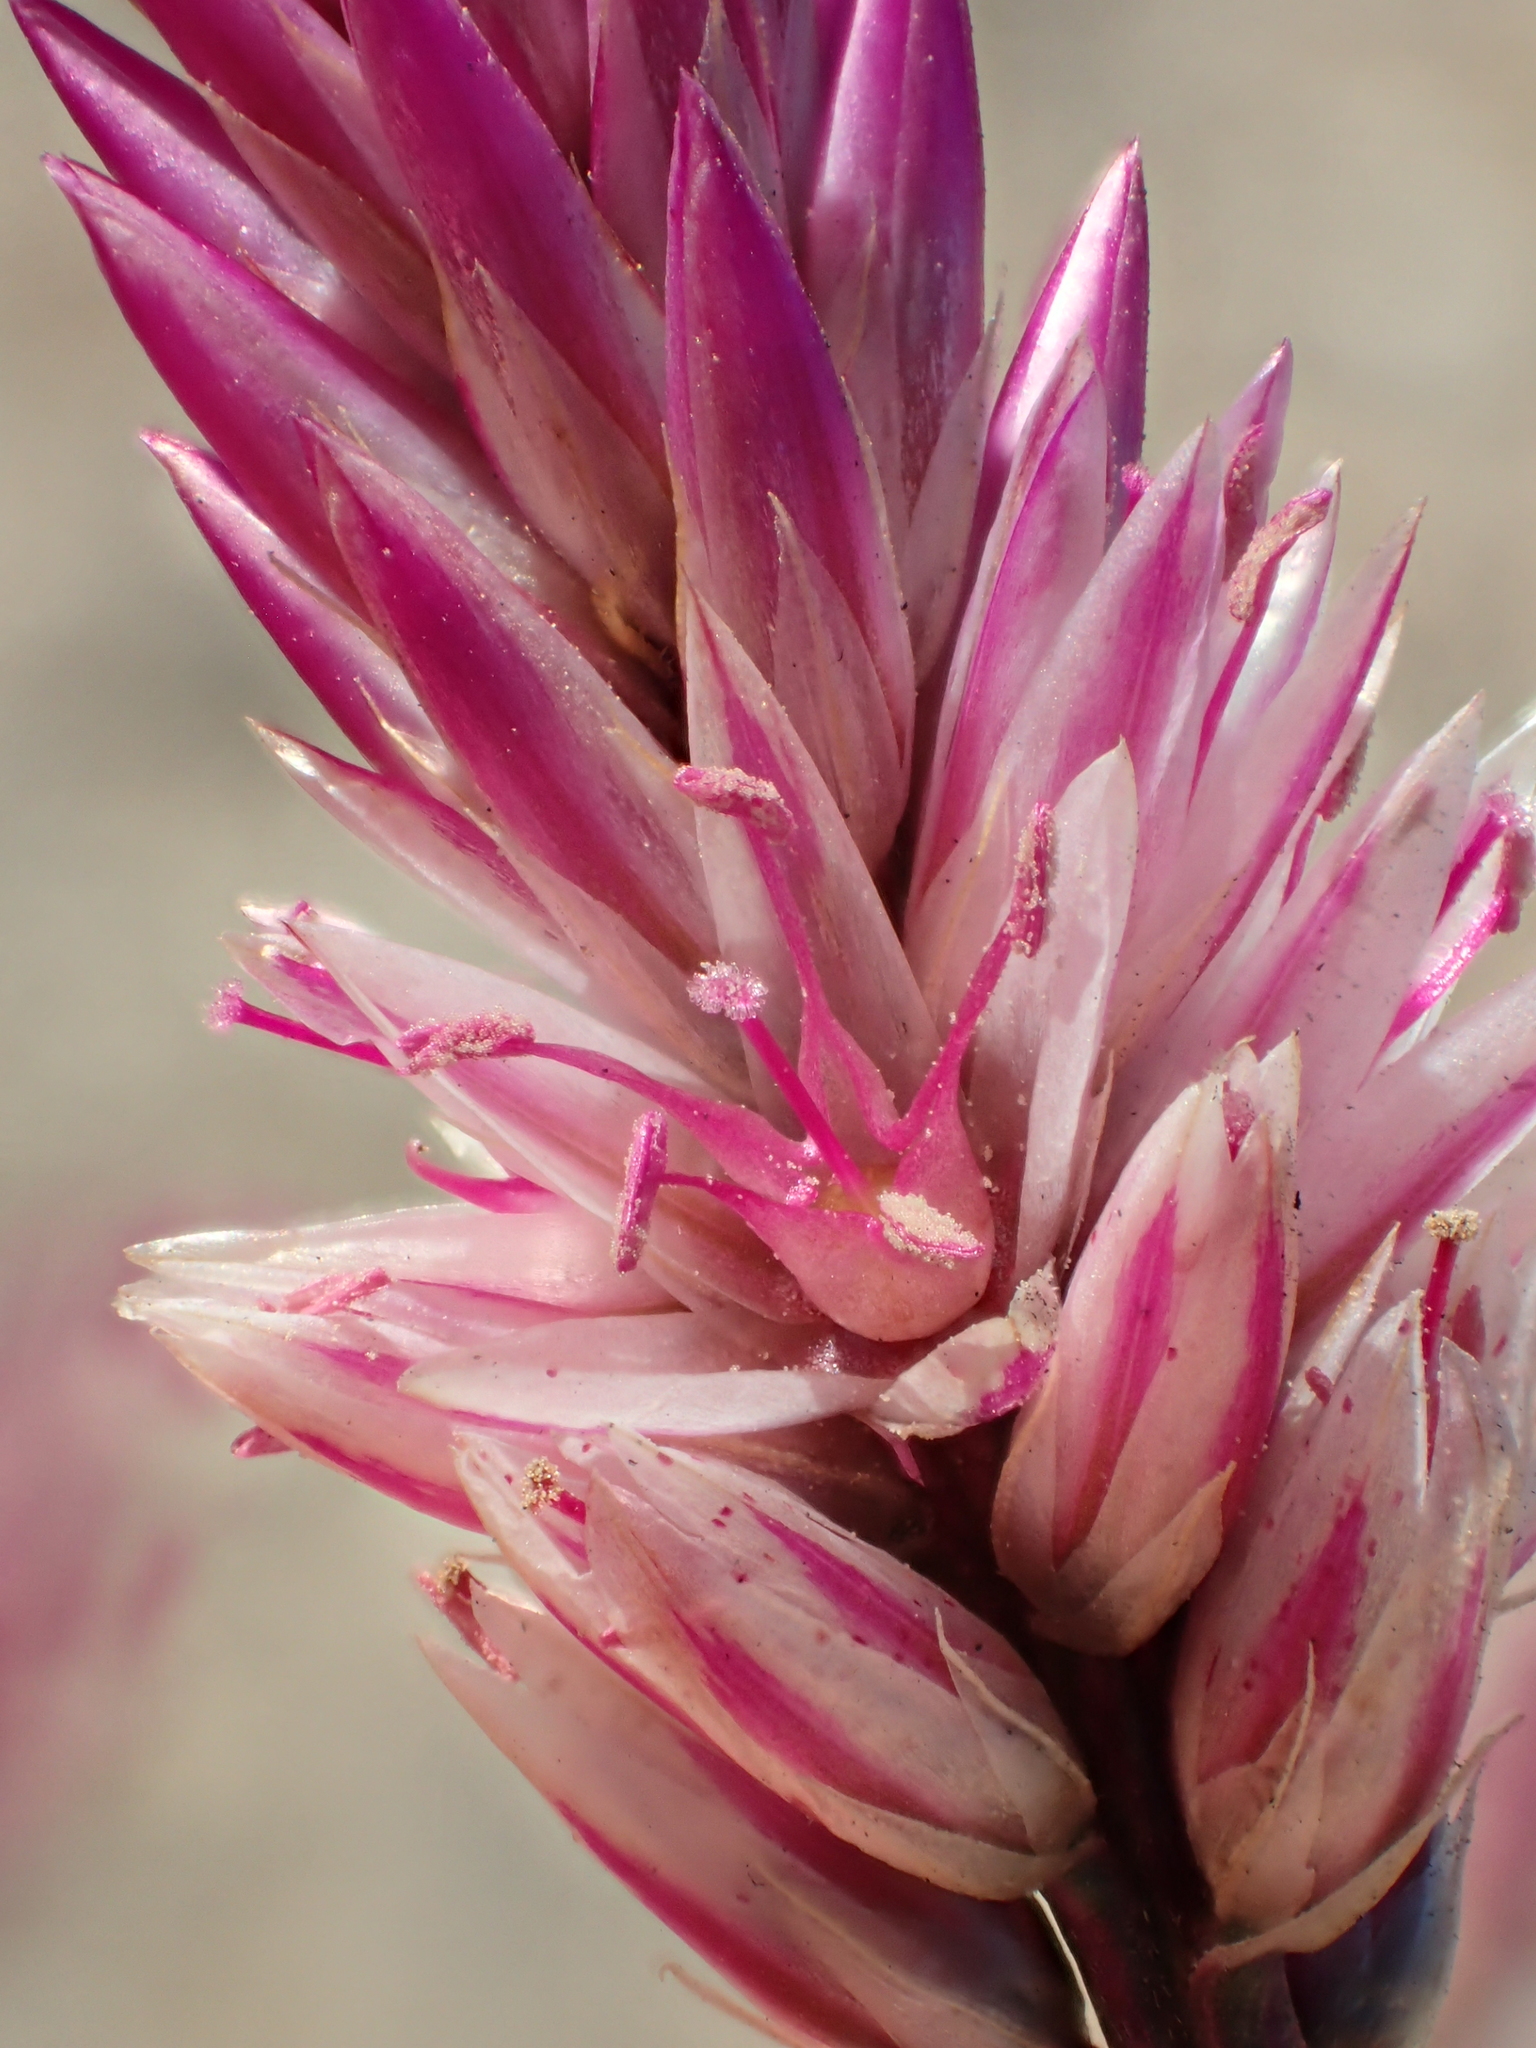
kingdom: Plantae
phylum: Tracheophyta
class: Magnoliopsida
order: Caryophyllales
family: Amaranthaceae
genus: Celosia
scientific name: Celosia argentea
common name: Feather cockscomb
